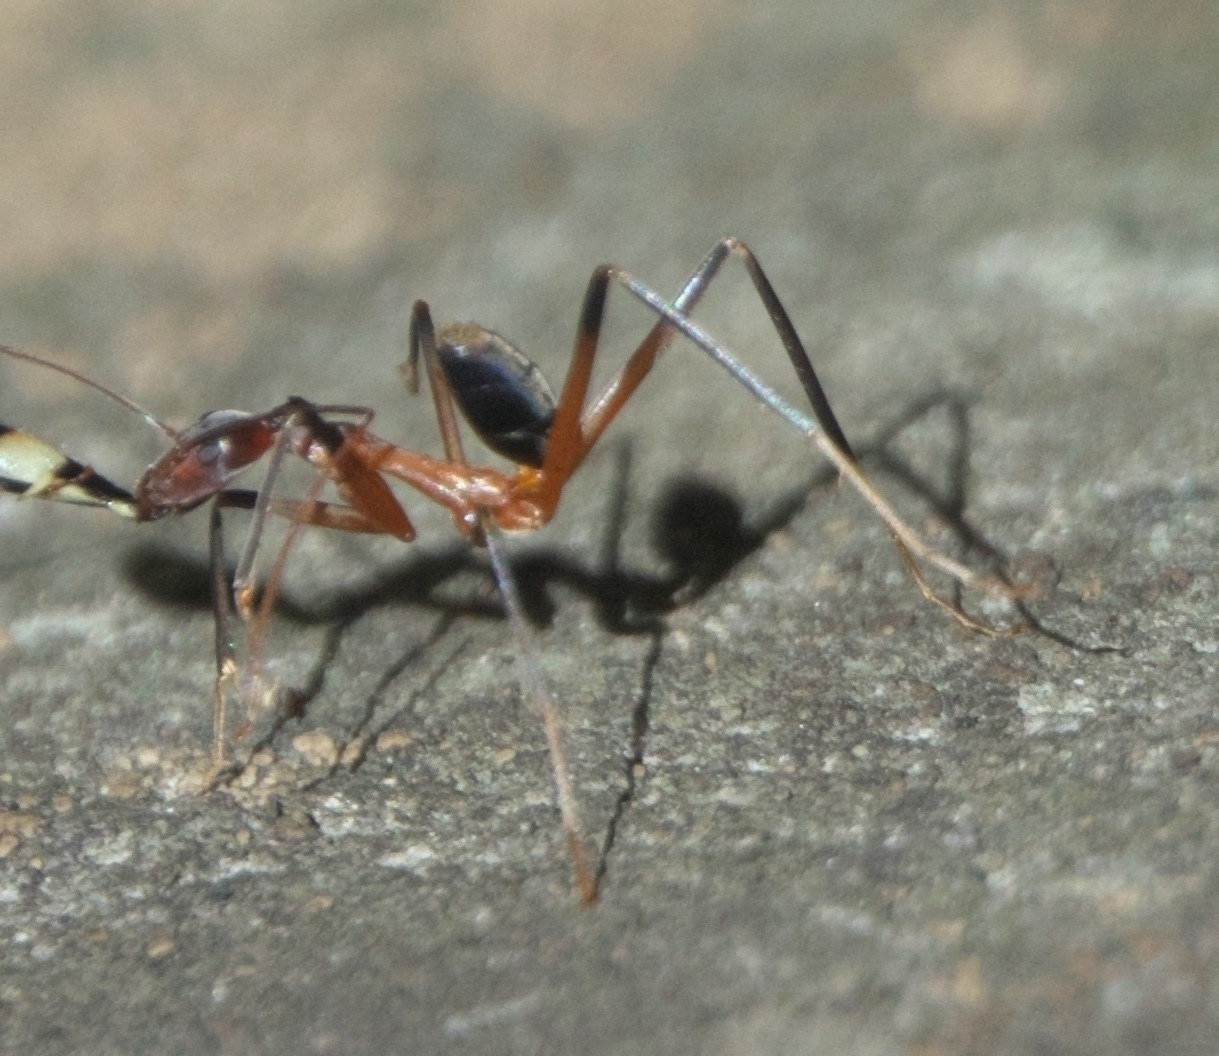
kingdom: Animalia
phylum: Arthropoda
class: Insecta
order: Hymenoptera
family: Formicidae
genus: Leptomyrmex
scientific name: Leptomyrmex cnemidatus
